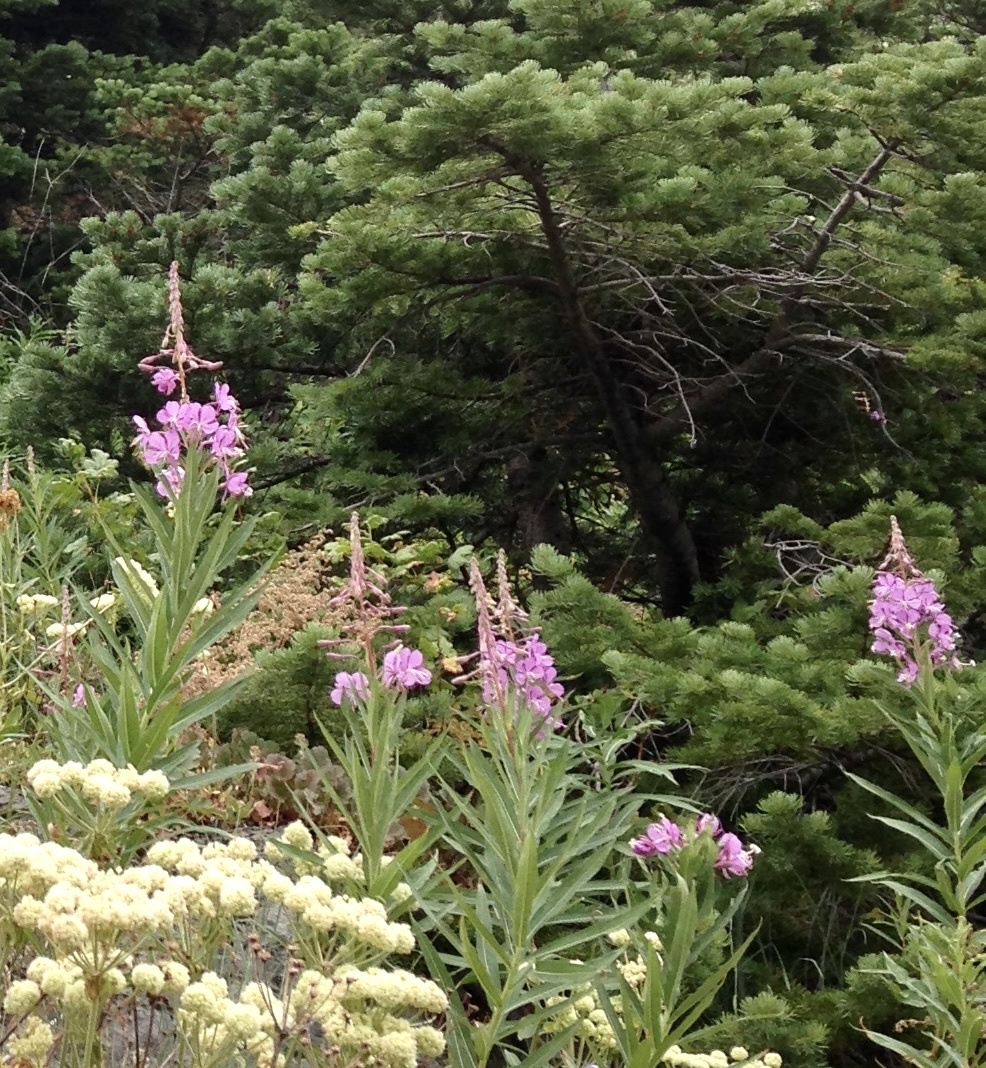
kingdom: Plantae
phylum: Tracheophyta
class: Magnoliopsida
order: Myrtales
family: Onagraceae
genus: Chamaenerion
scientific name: Chamaenerion angustifolium
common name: Fireweed
